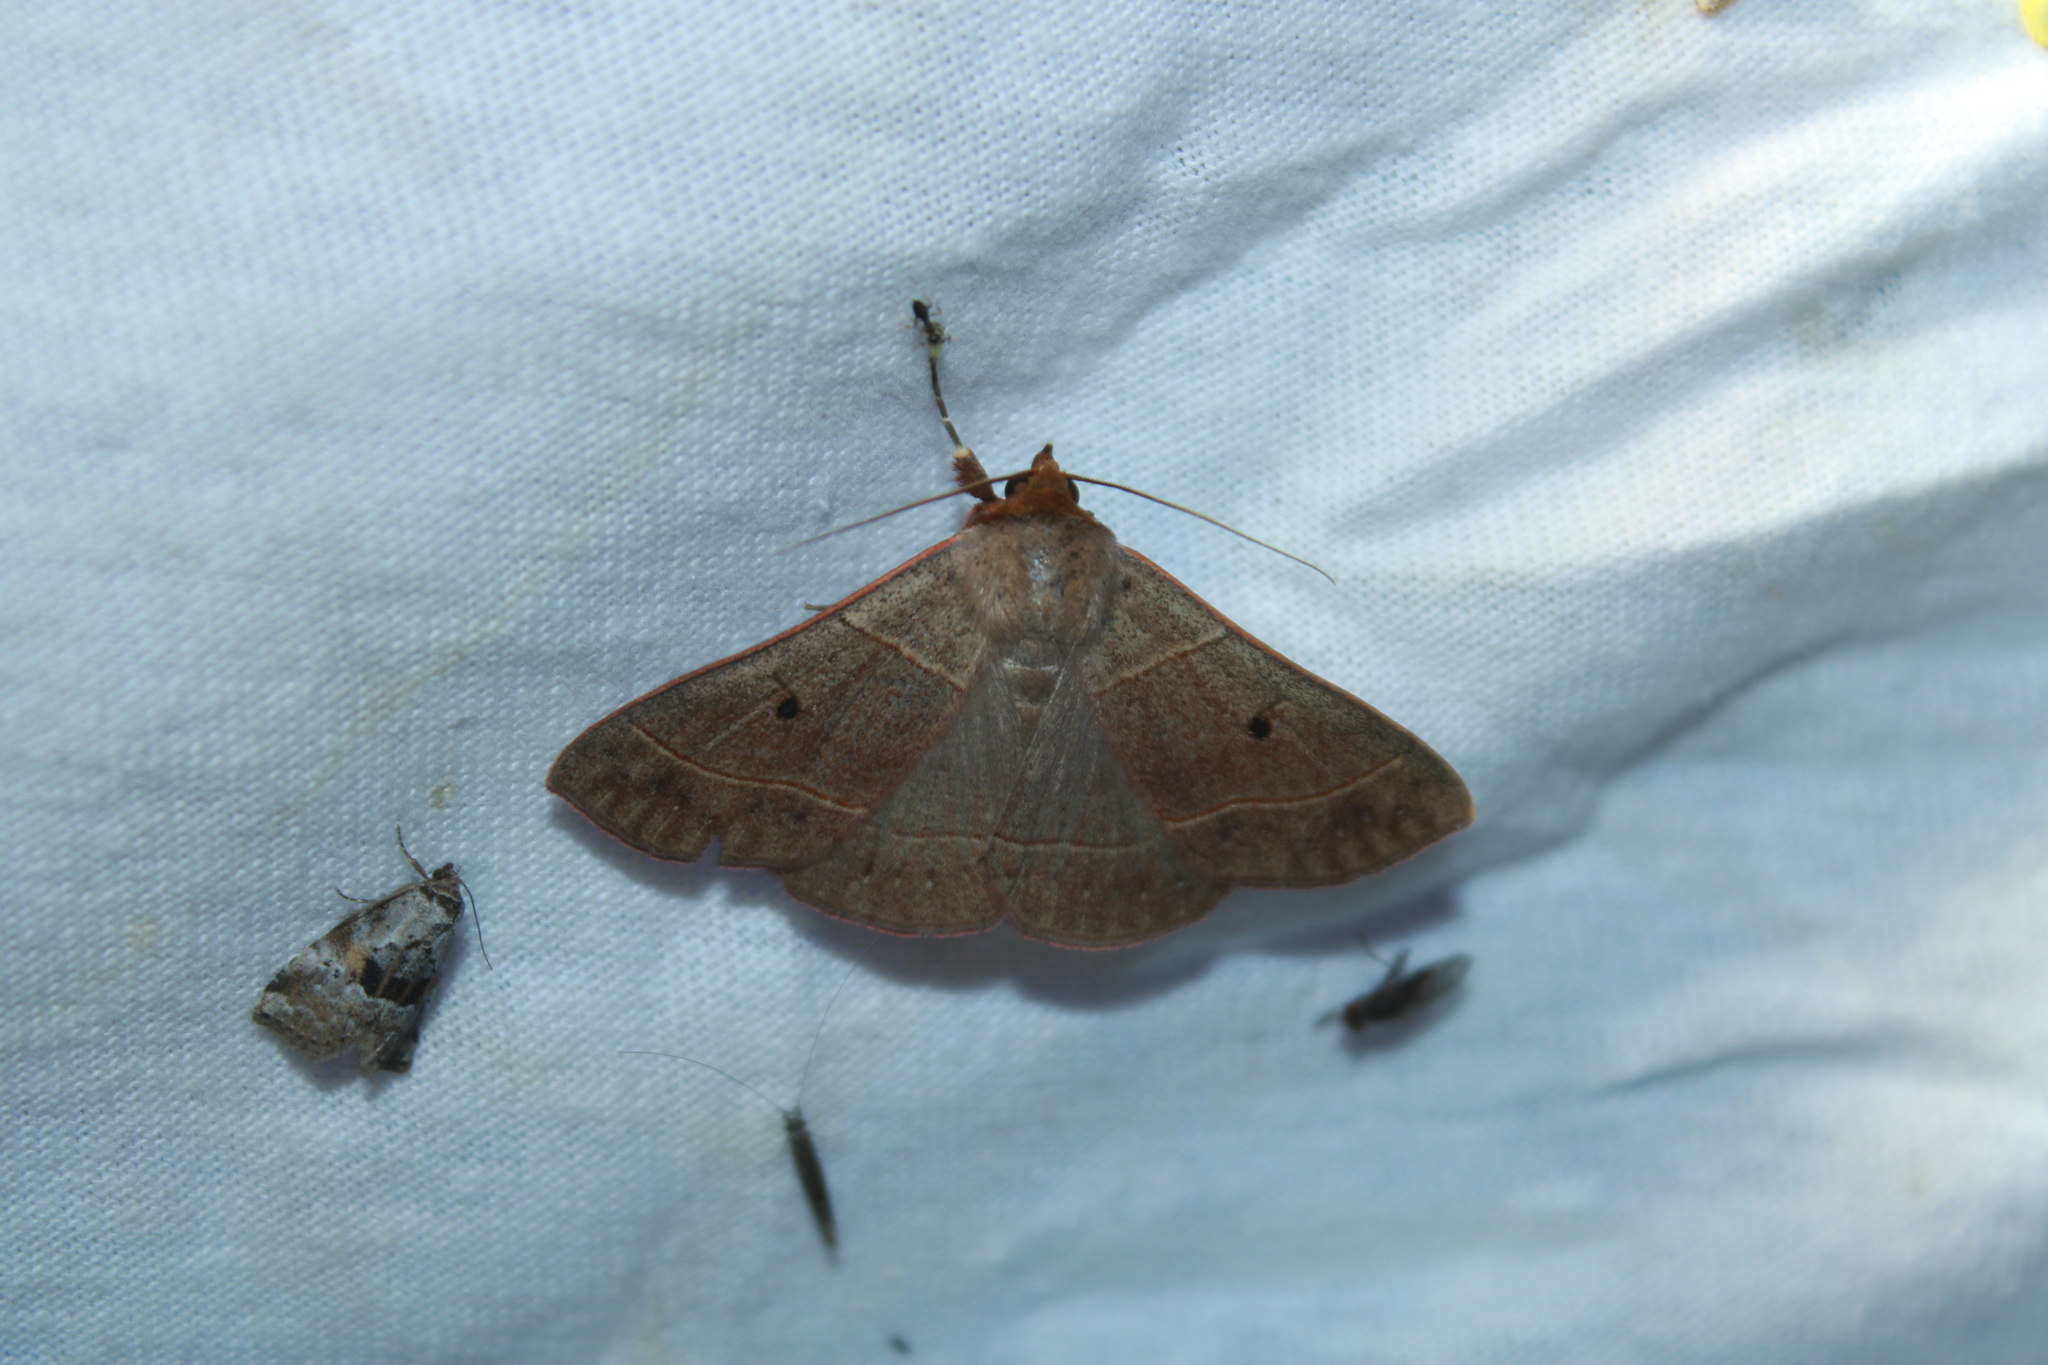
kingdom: Animalia
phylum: Arthropoda
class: Insecta
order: Lepidoptera
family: Erebidae
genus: Panopoda
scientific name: Panopoda rufimargo
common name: Red-lined panopoda moth
